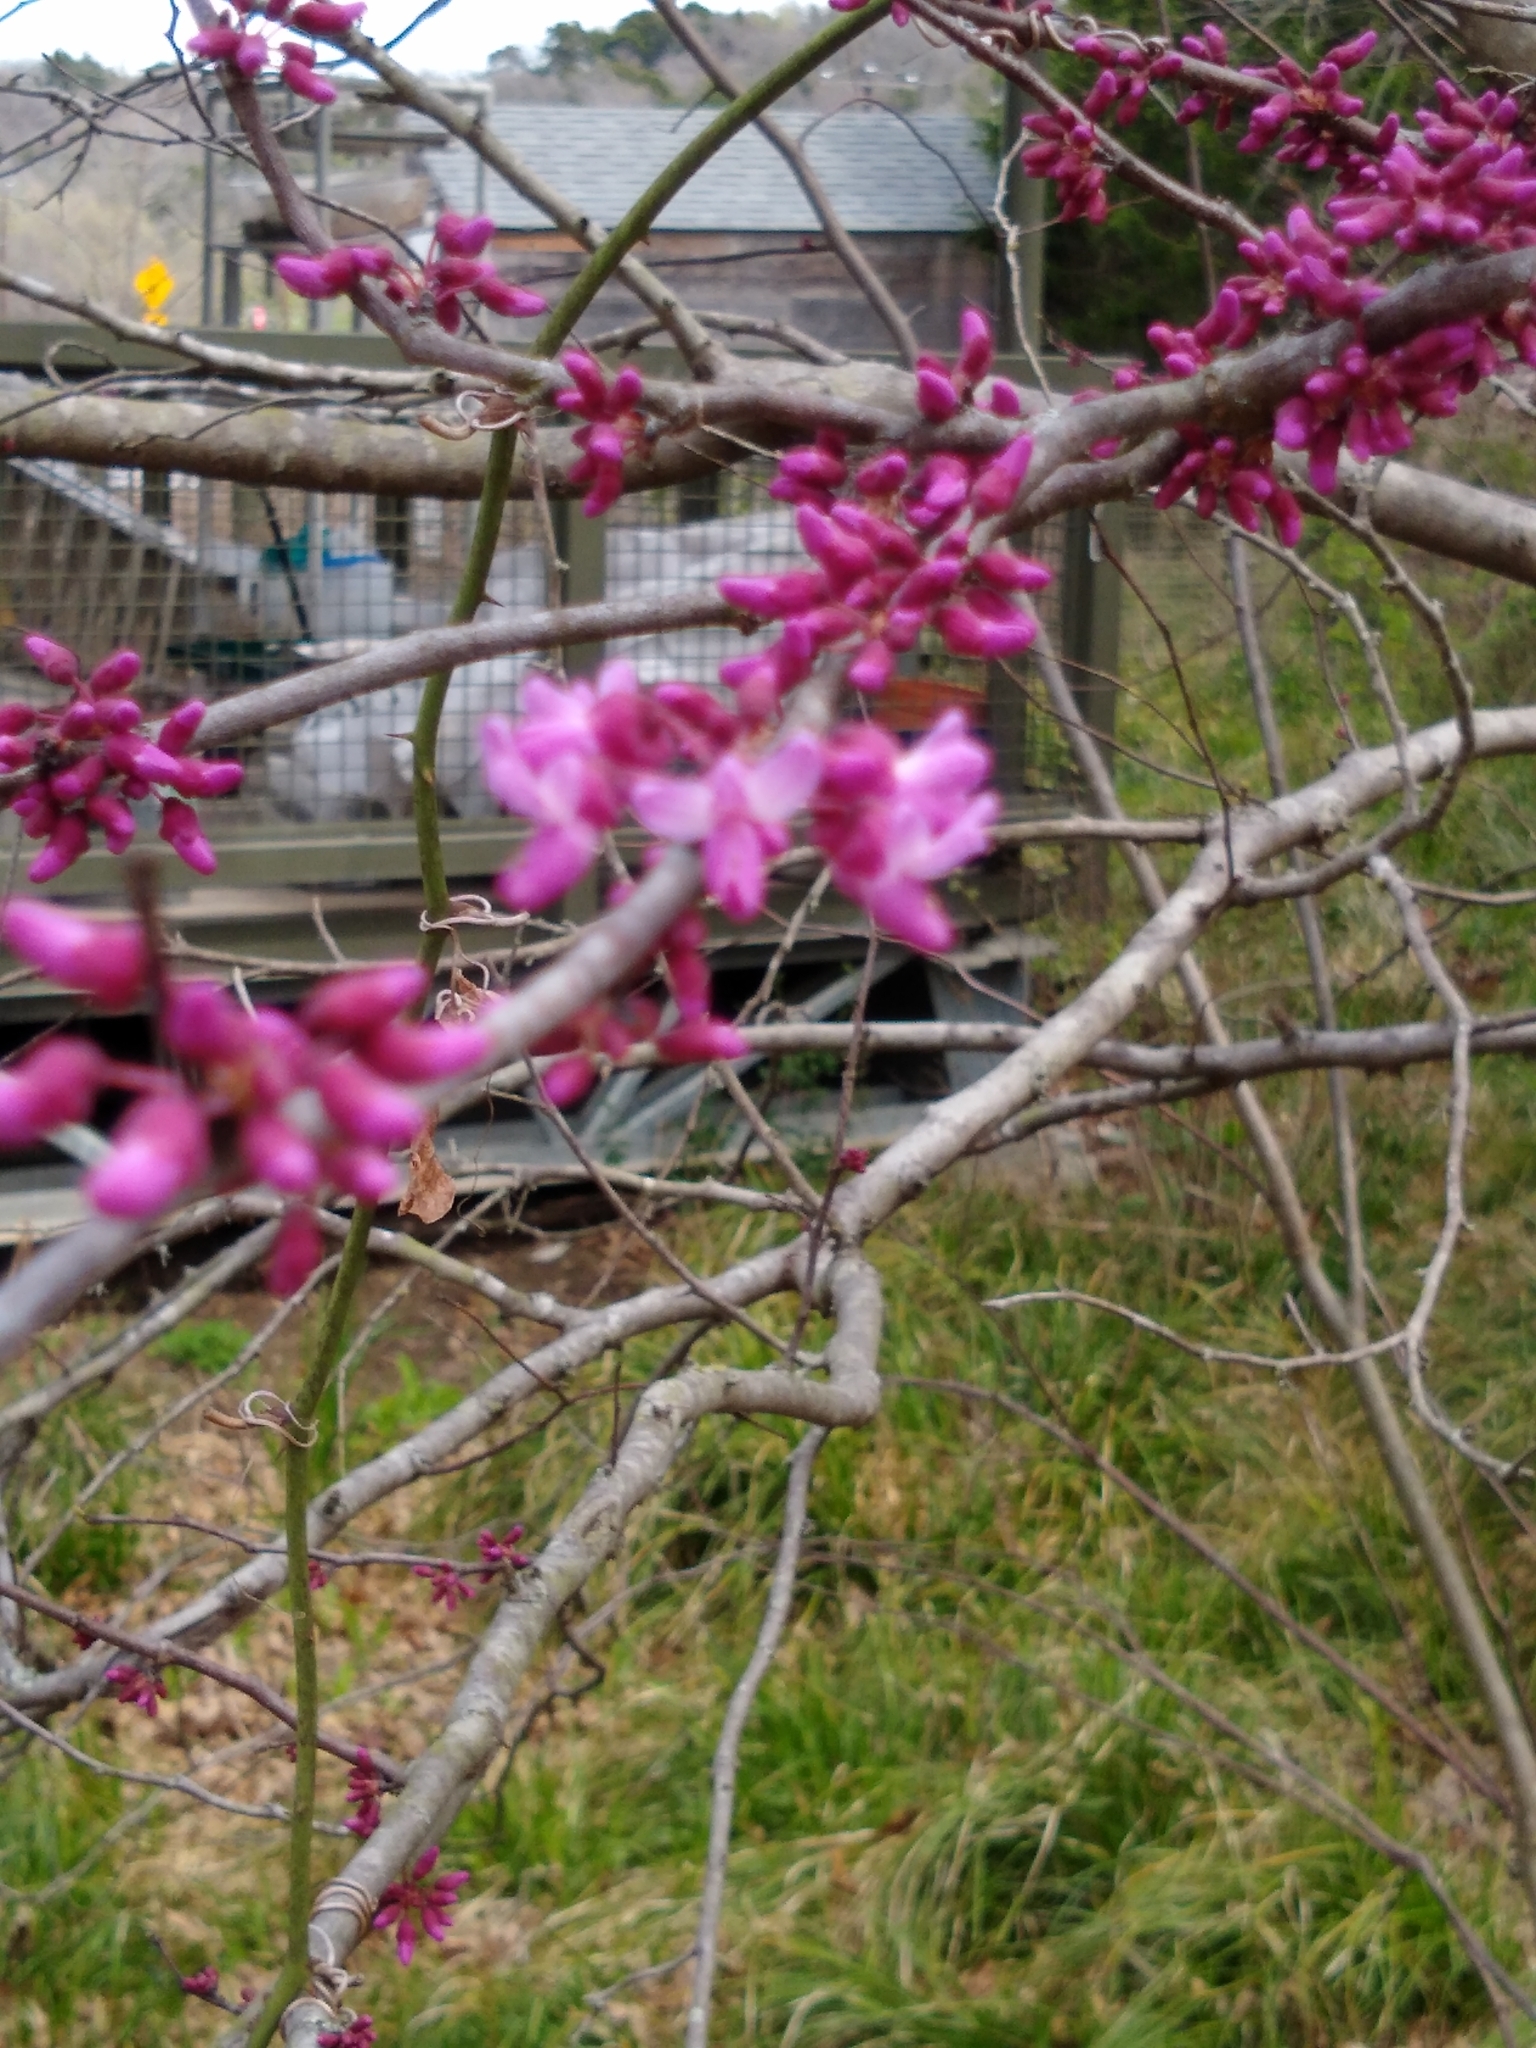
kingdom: Plantae
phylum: Tracheophyta
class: Magnoliopsida
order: Fabales
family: Fabaceae
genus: Cercis
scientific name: Cercis canadensis
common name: Eastern redbud
